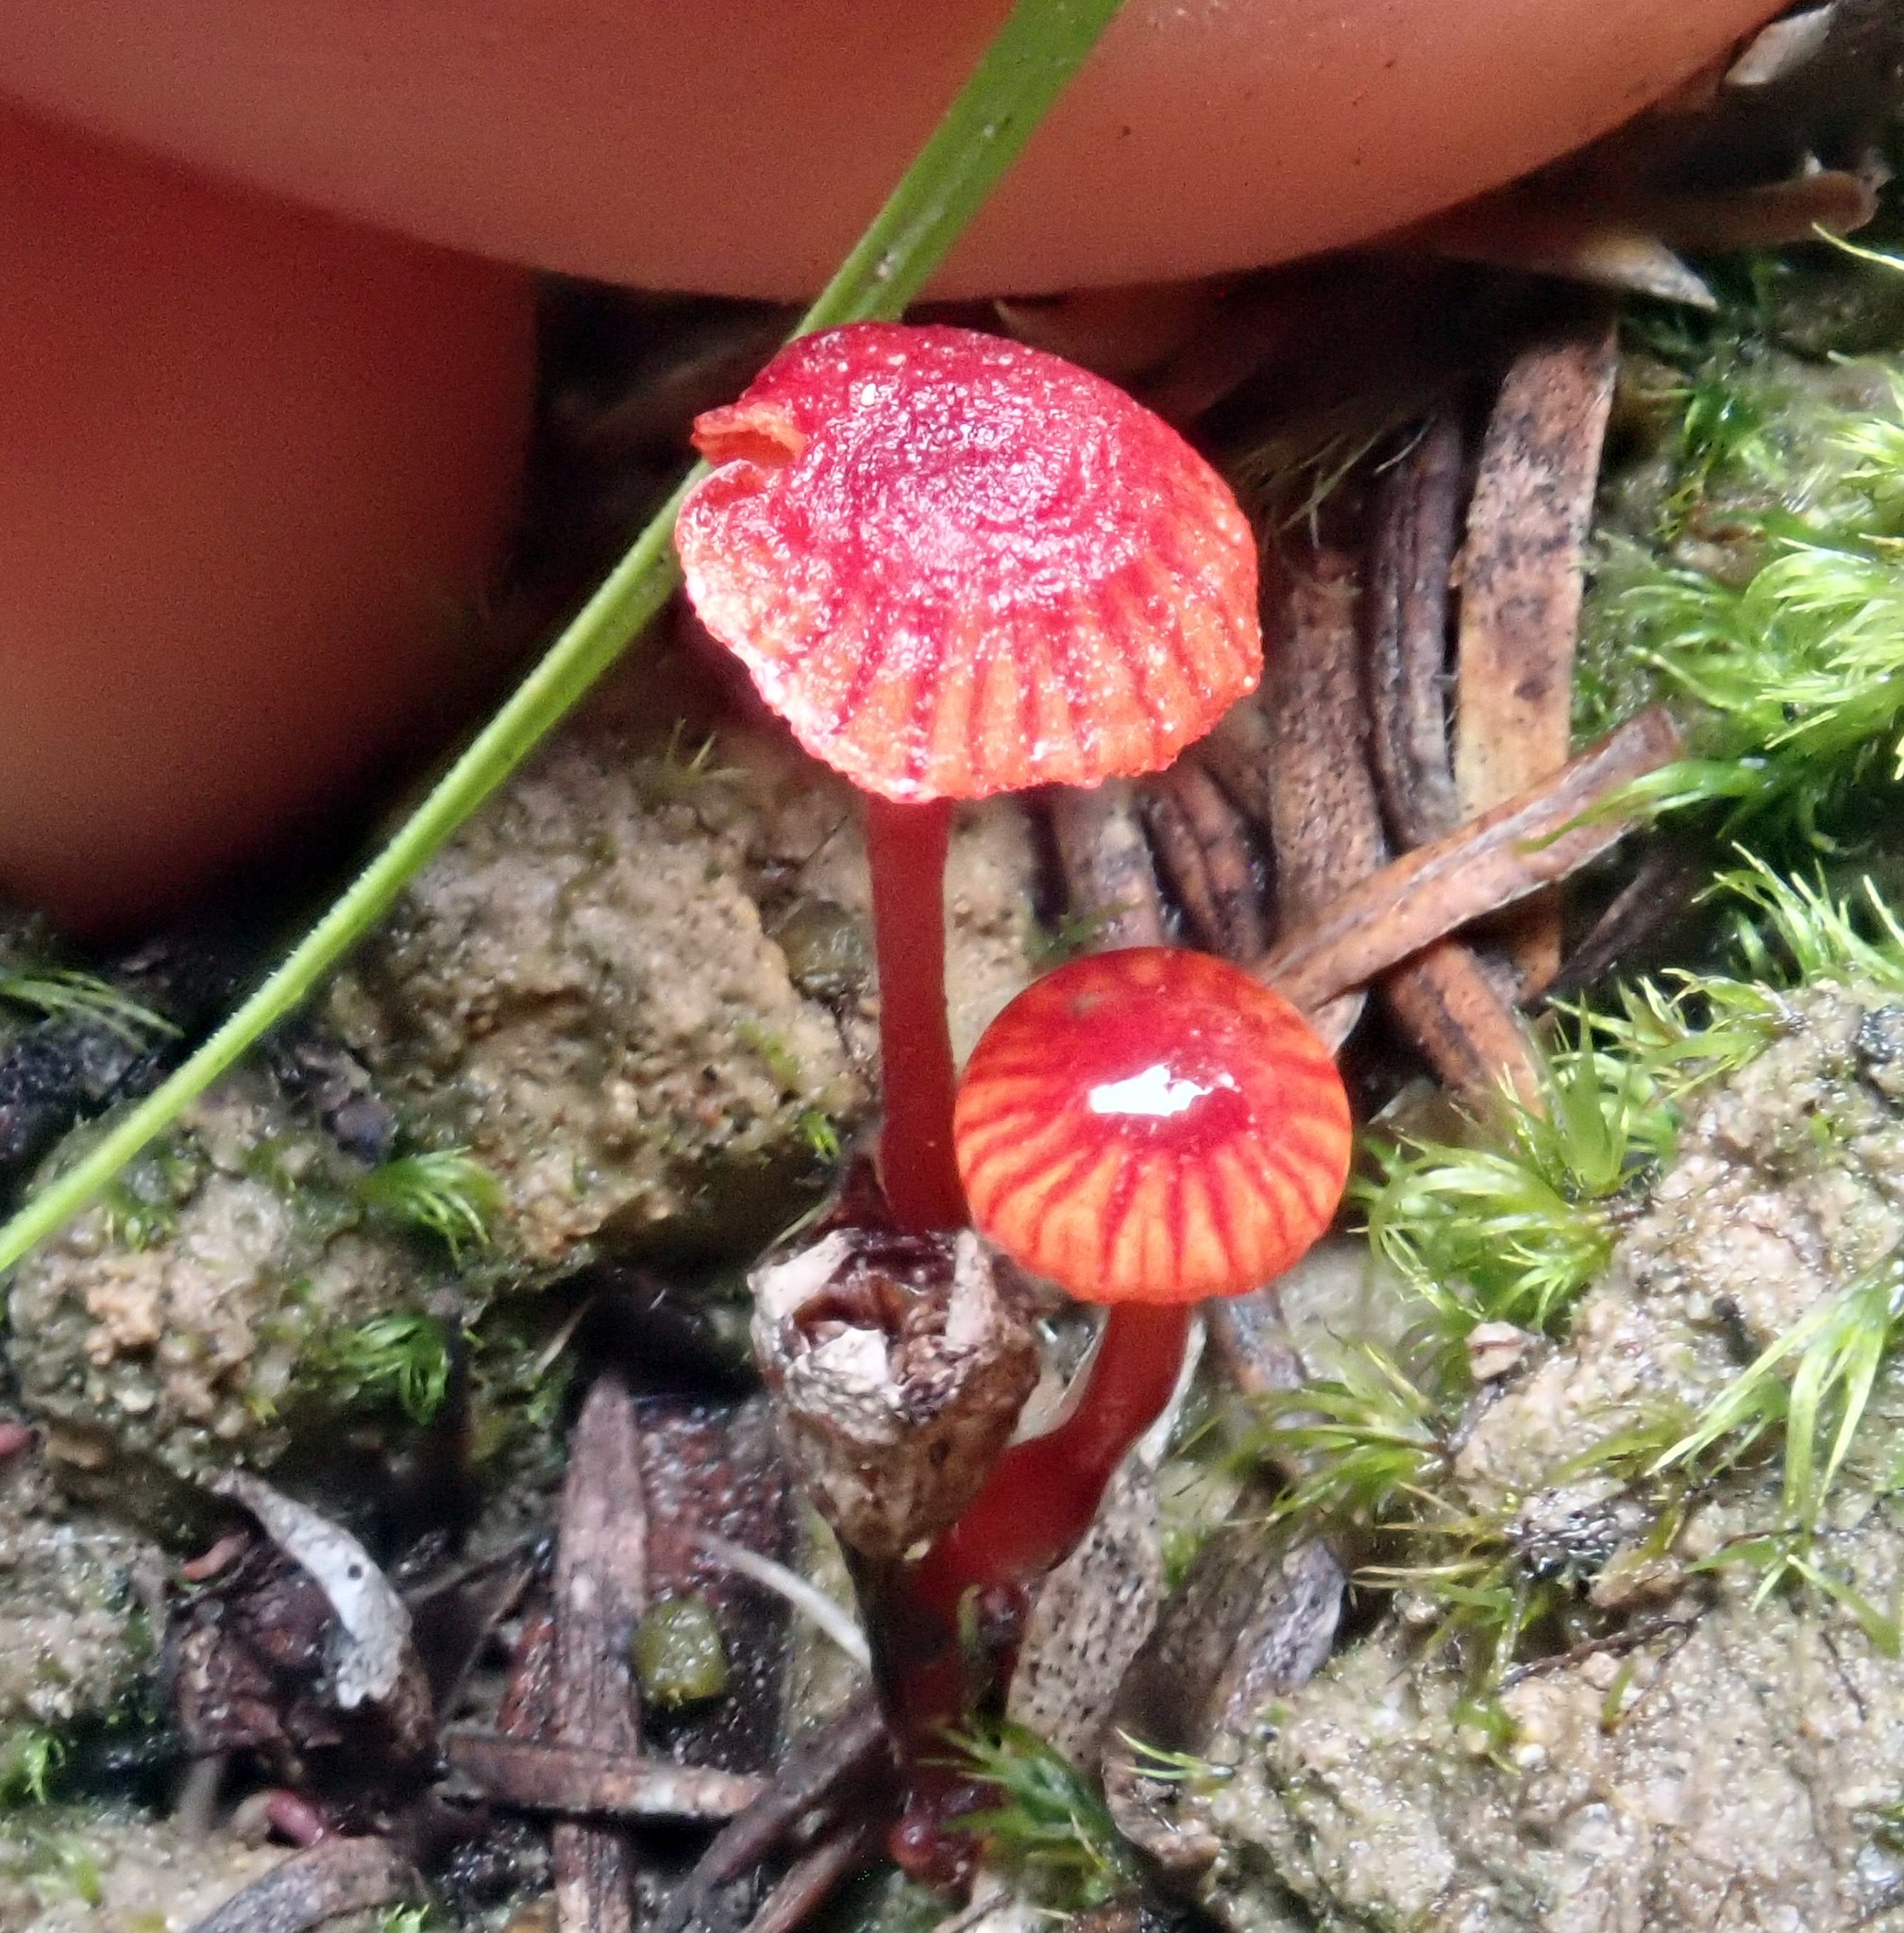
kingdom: Fungi
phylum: Basidiomycota
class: Agaricomycetes
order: Agaricales
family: Mycenaceae
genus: Cruentomycena
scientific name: Cruentomycena viscidocruenta
